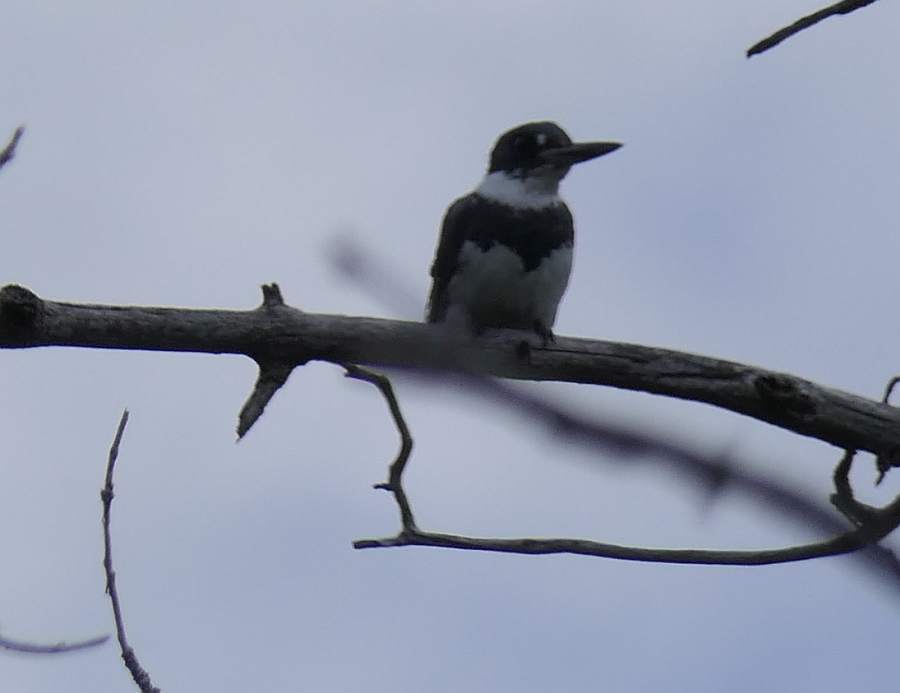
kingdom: Animalia
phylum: Chordata
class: Aves
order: Coraciiformes
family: Alcedinidae
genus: Megaceryle
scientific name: Megaceryle alcyon
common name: Belted kingfisher
